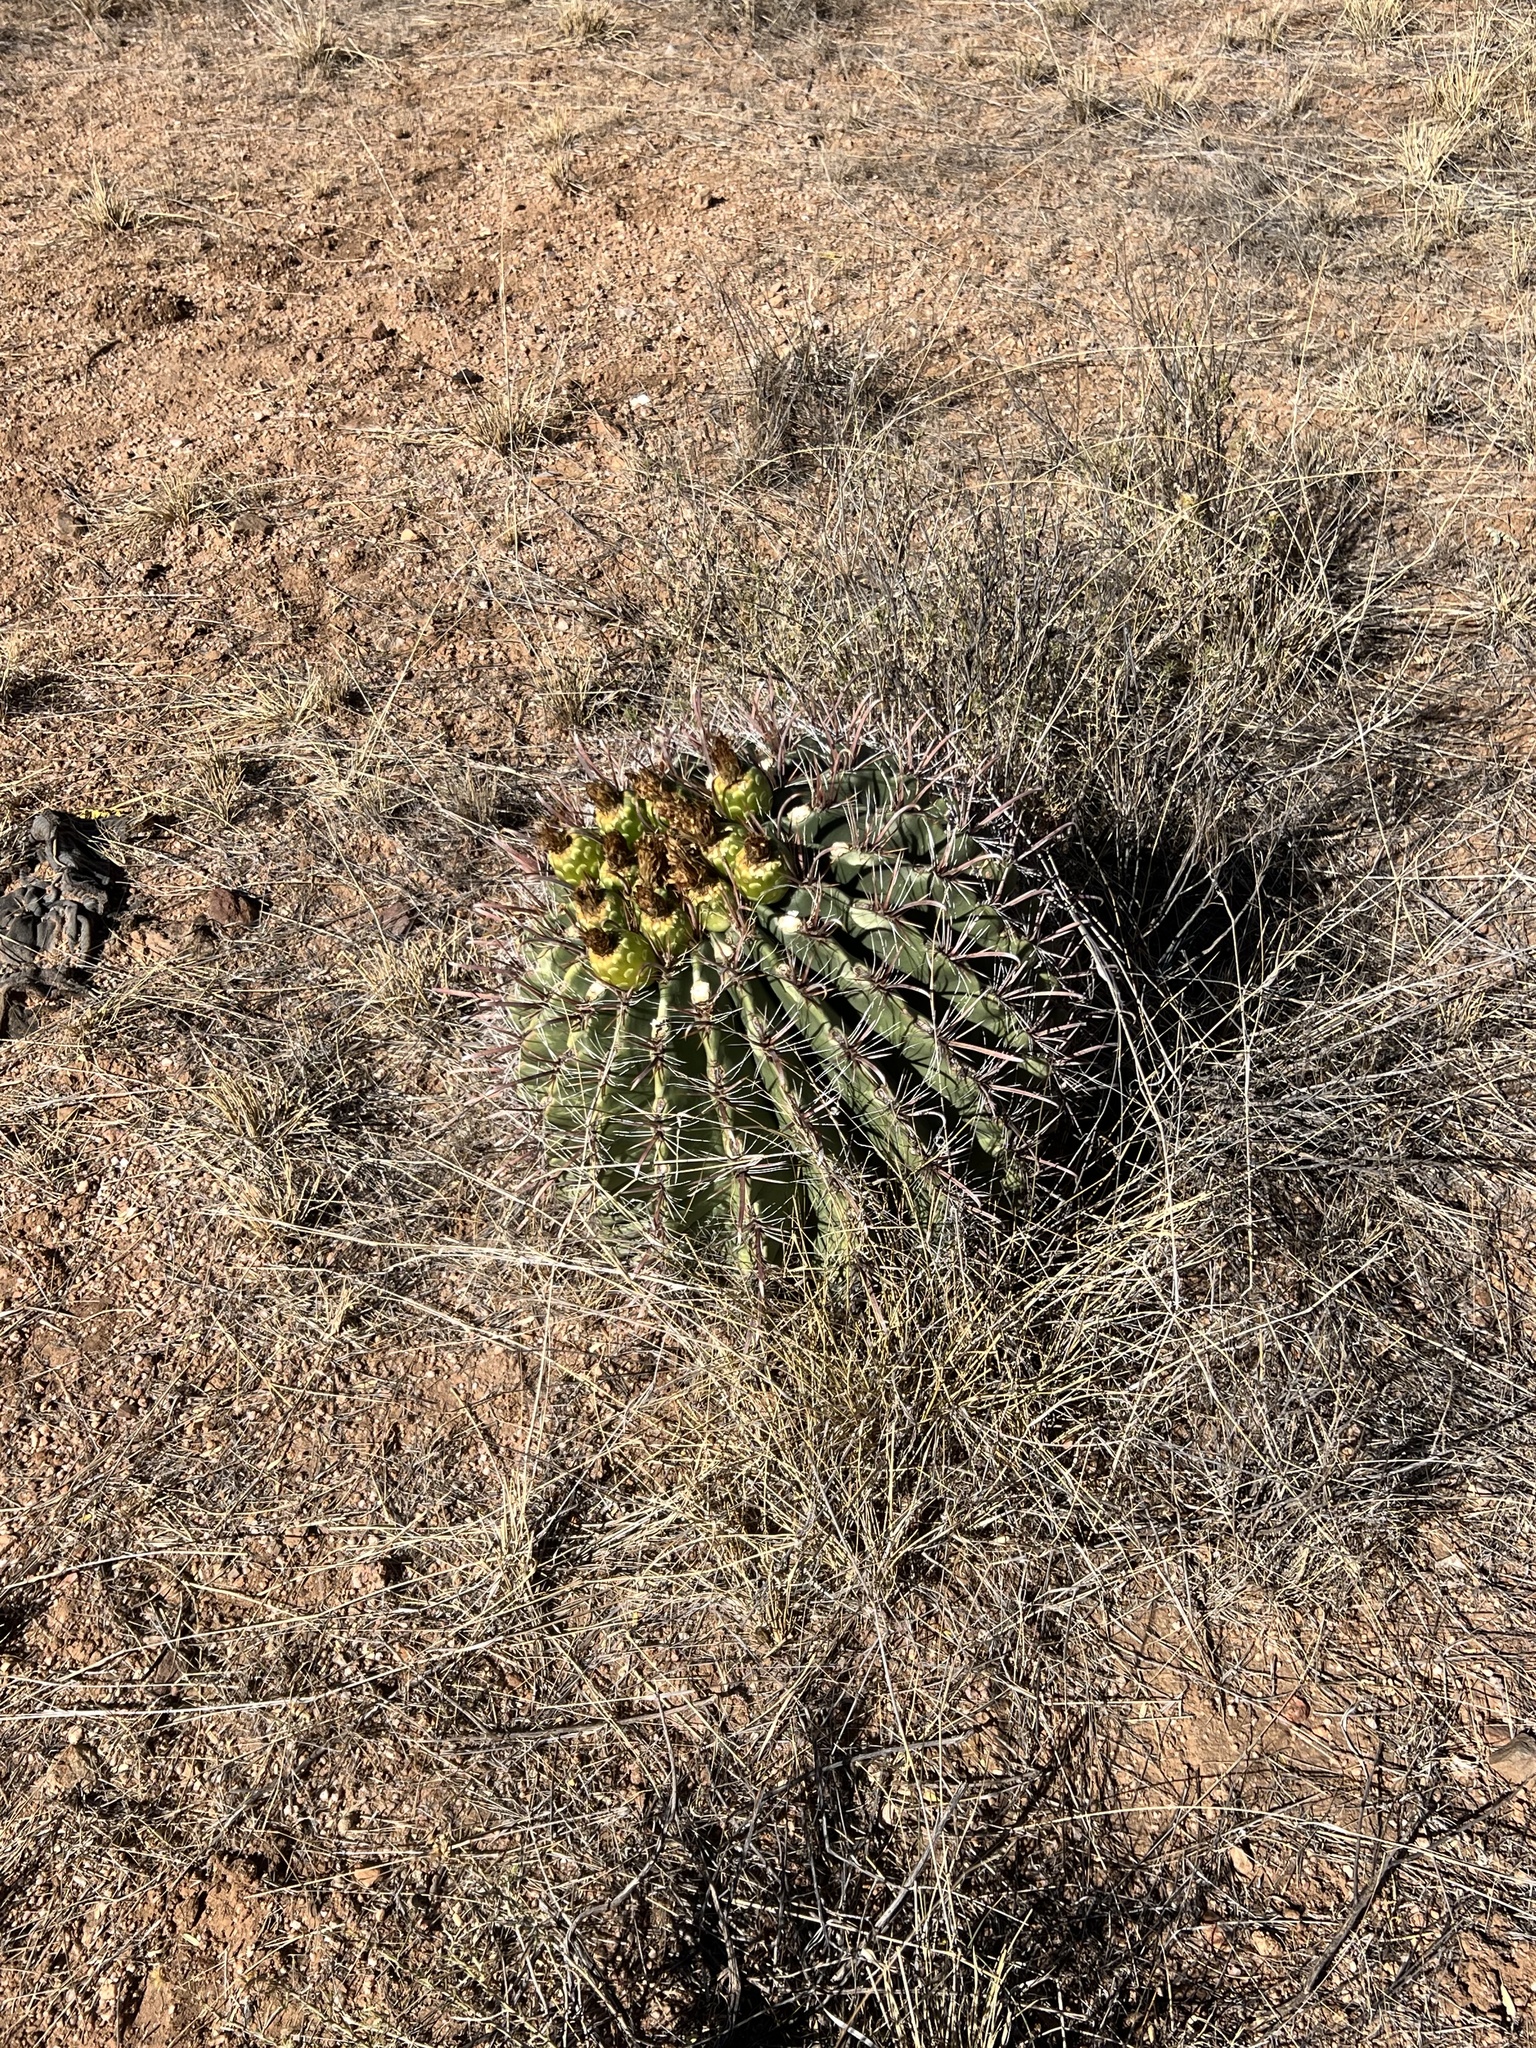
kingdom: Plantae
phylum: Tracheophyta
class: Magnoliopsida
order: Caryophyllales
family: Cactaceae
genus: Ferocactus
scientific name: Ferocactus wislizeni
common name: Candy barrel cactus
